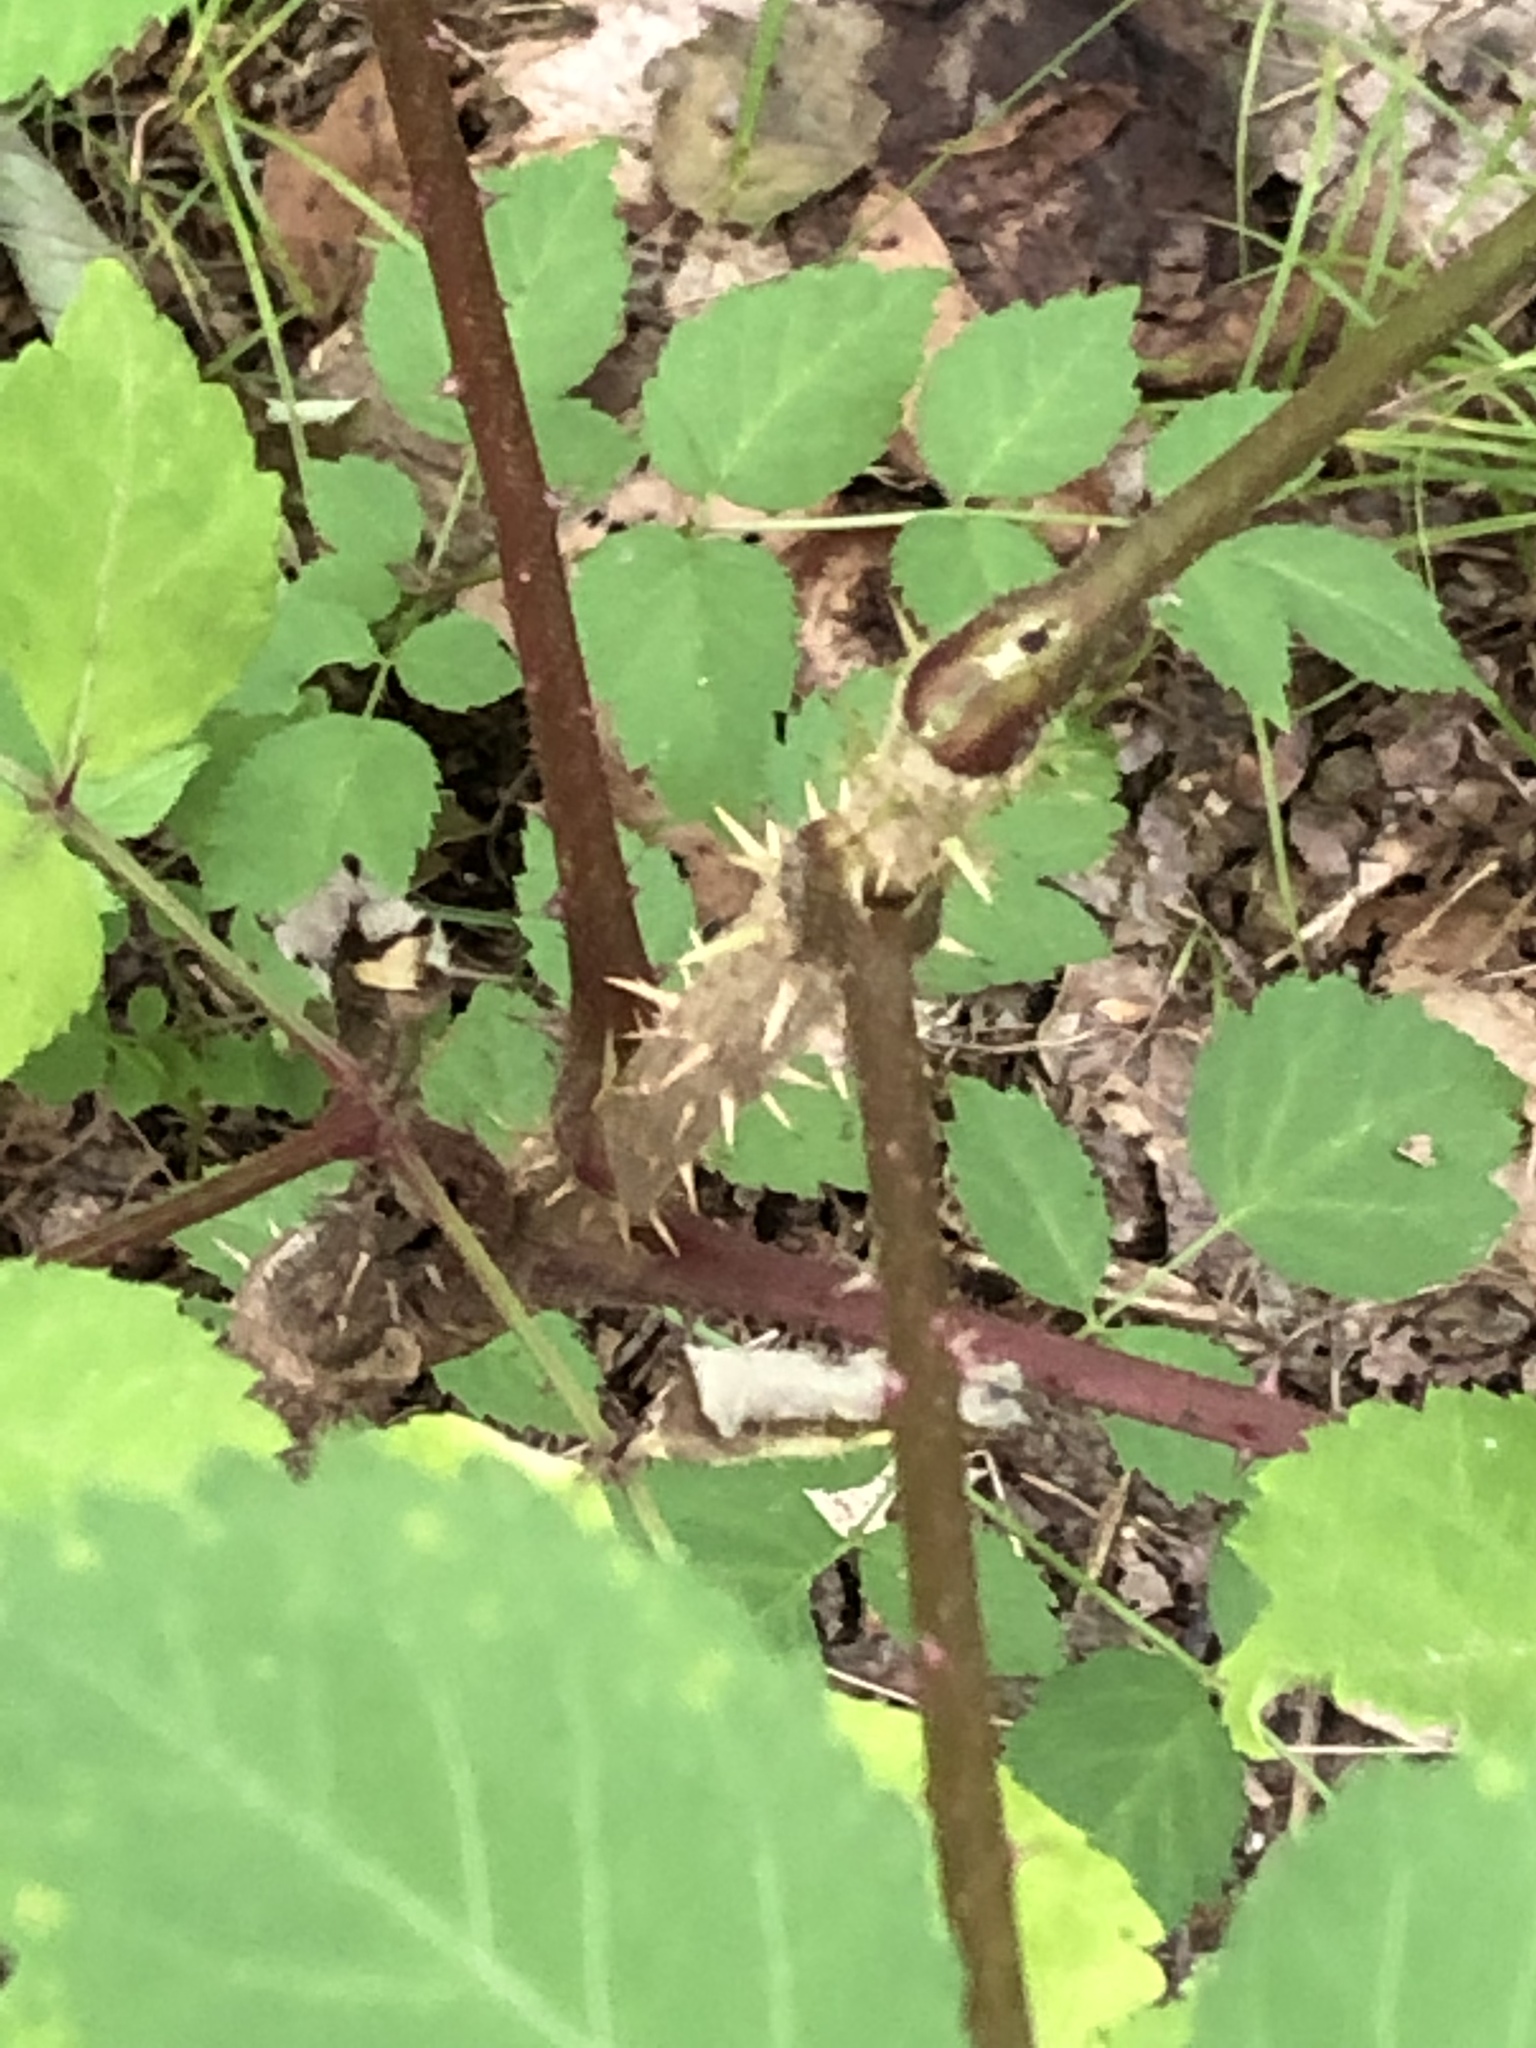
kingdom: Plantae
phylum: Tracheophyta
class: Magnoliopsida
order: Apiales
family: Araliaceae
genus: Aralia
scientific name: Aralia elata
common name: Japanese angelica-tree
